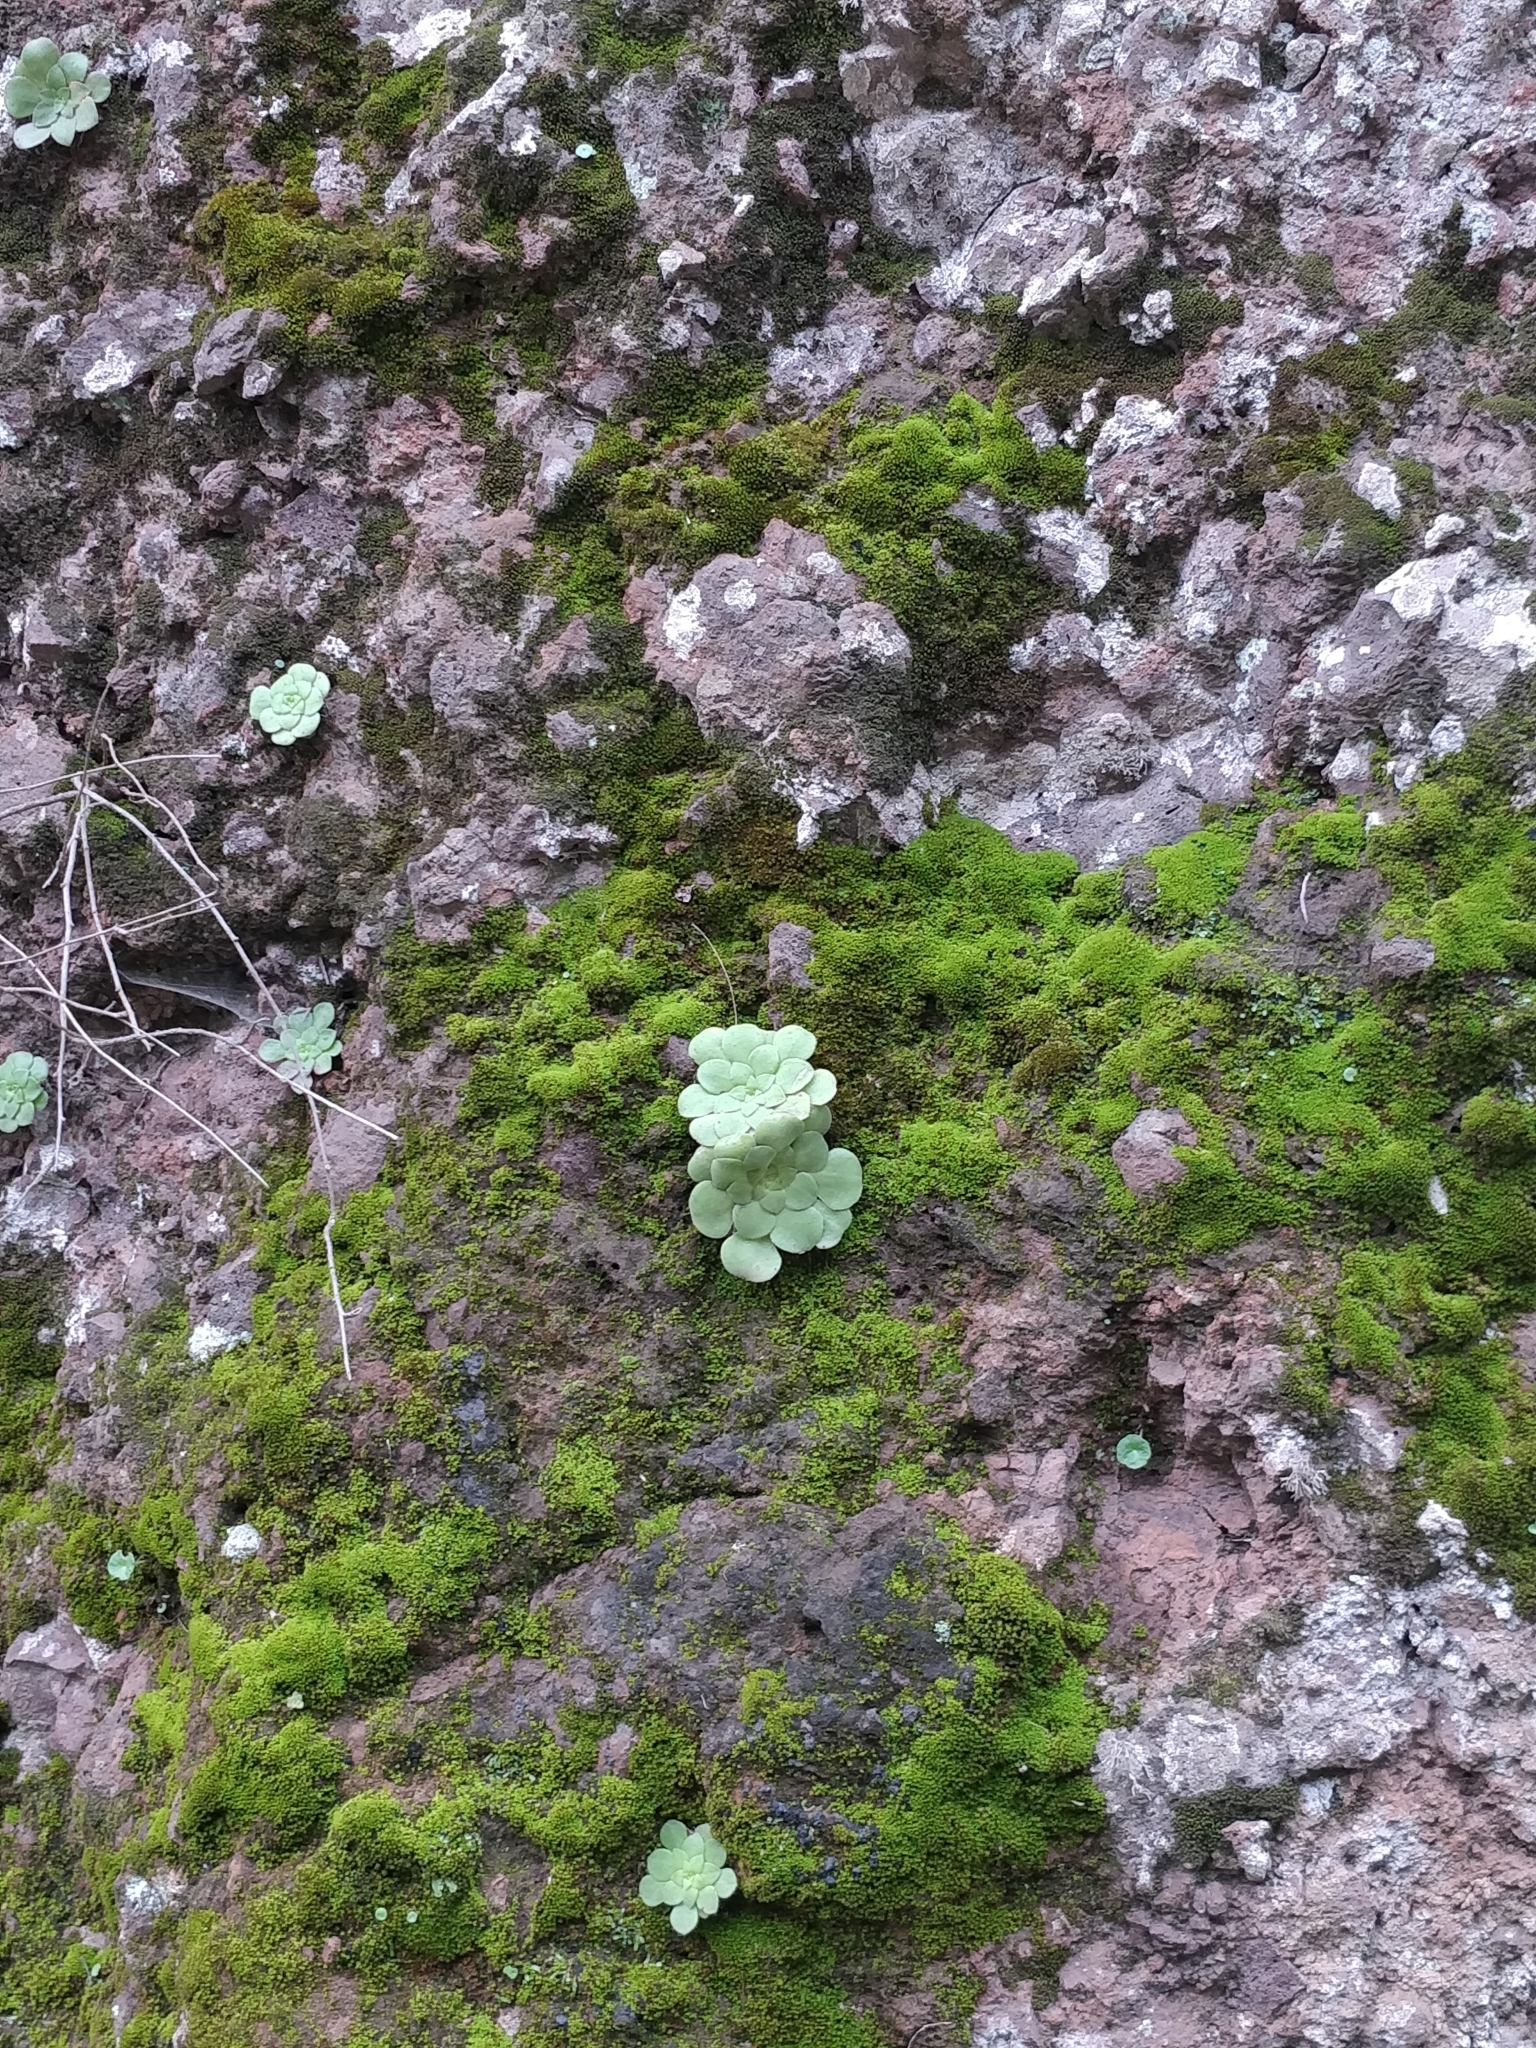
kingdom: Plantae
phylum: Tracheophyta
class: Magnoliopsida
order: Saxifragales
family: Crassulaceae
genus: Aeonium
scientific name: Aeonium glandulosum
